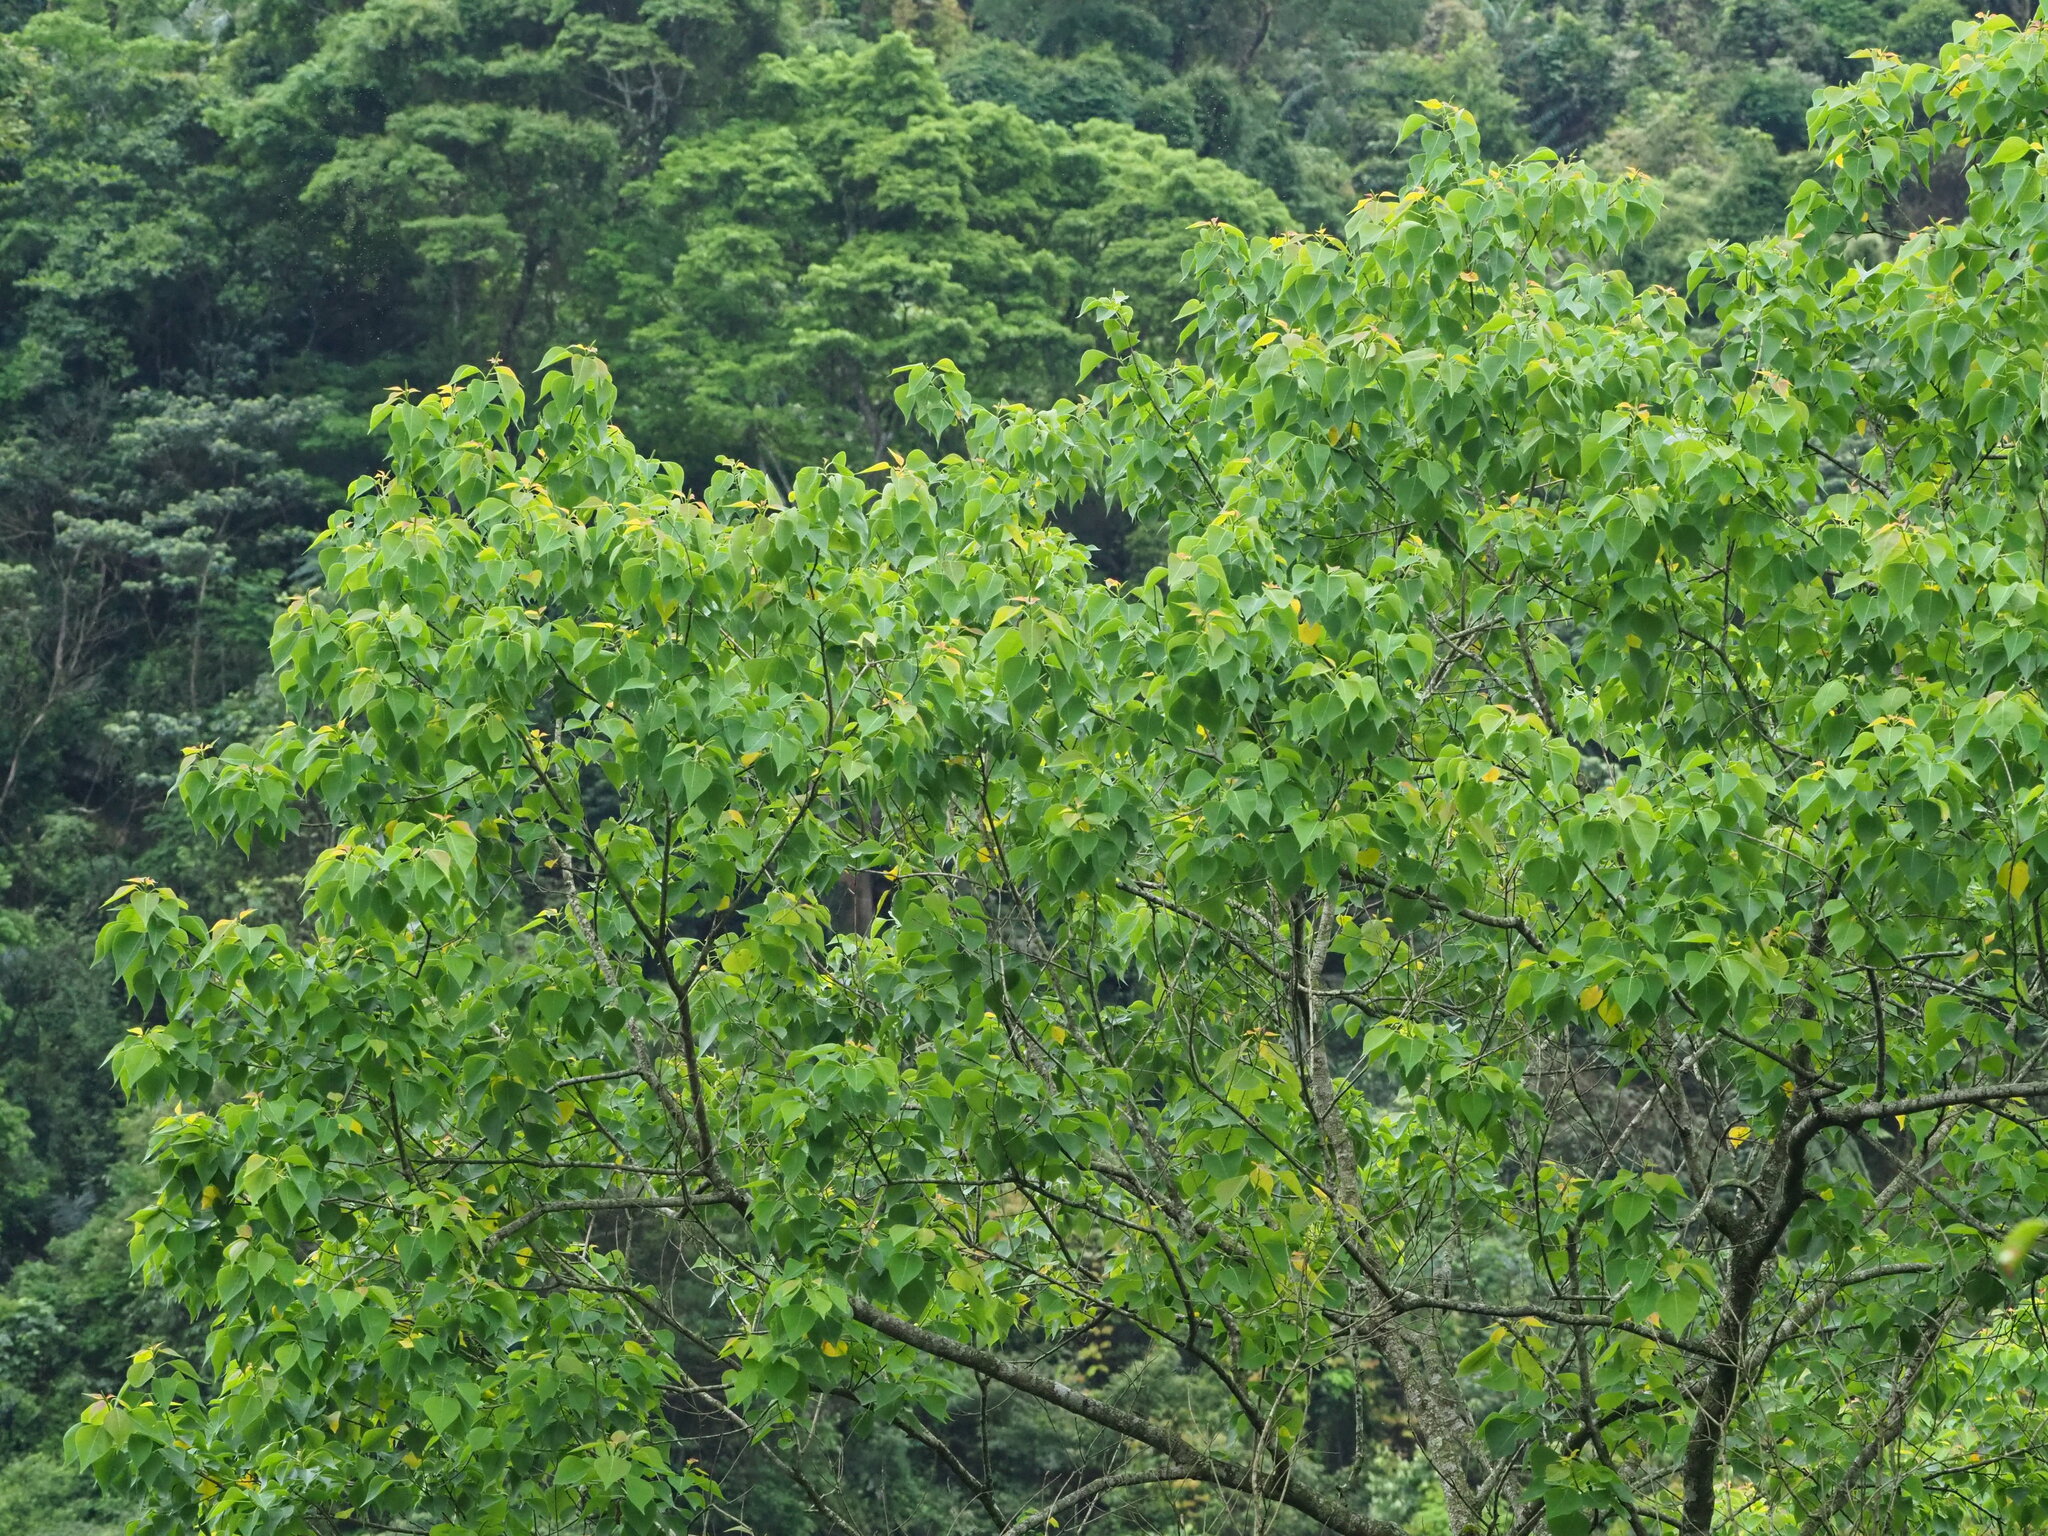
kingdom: Plantae
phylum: Tracheophyta
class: Magnoliopsida
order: Malpighiales
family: Euphorbiaceae
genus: Triadica
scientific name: Triadica sebifera
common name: Chinese tallow
